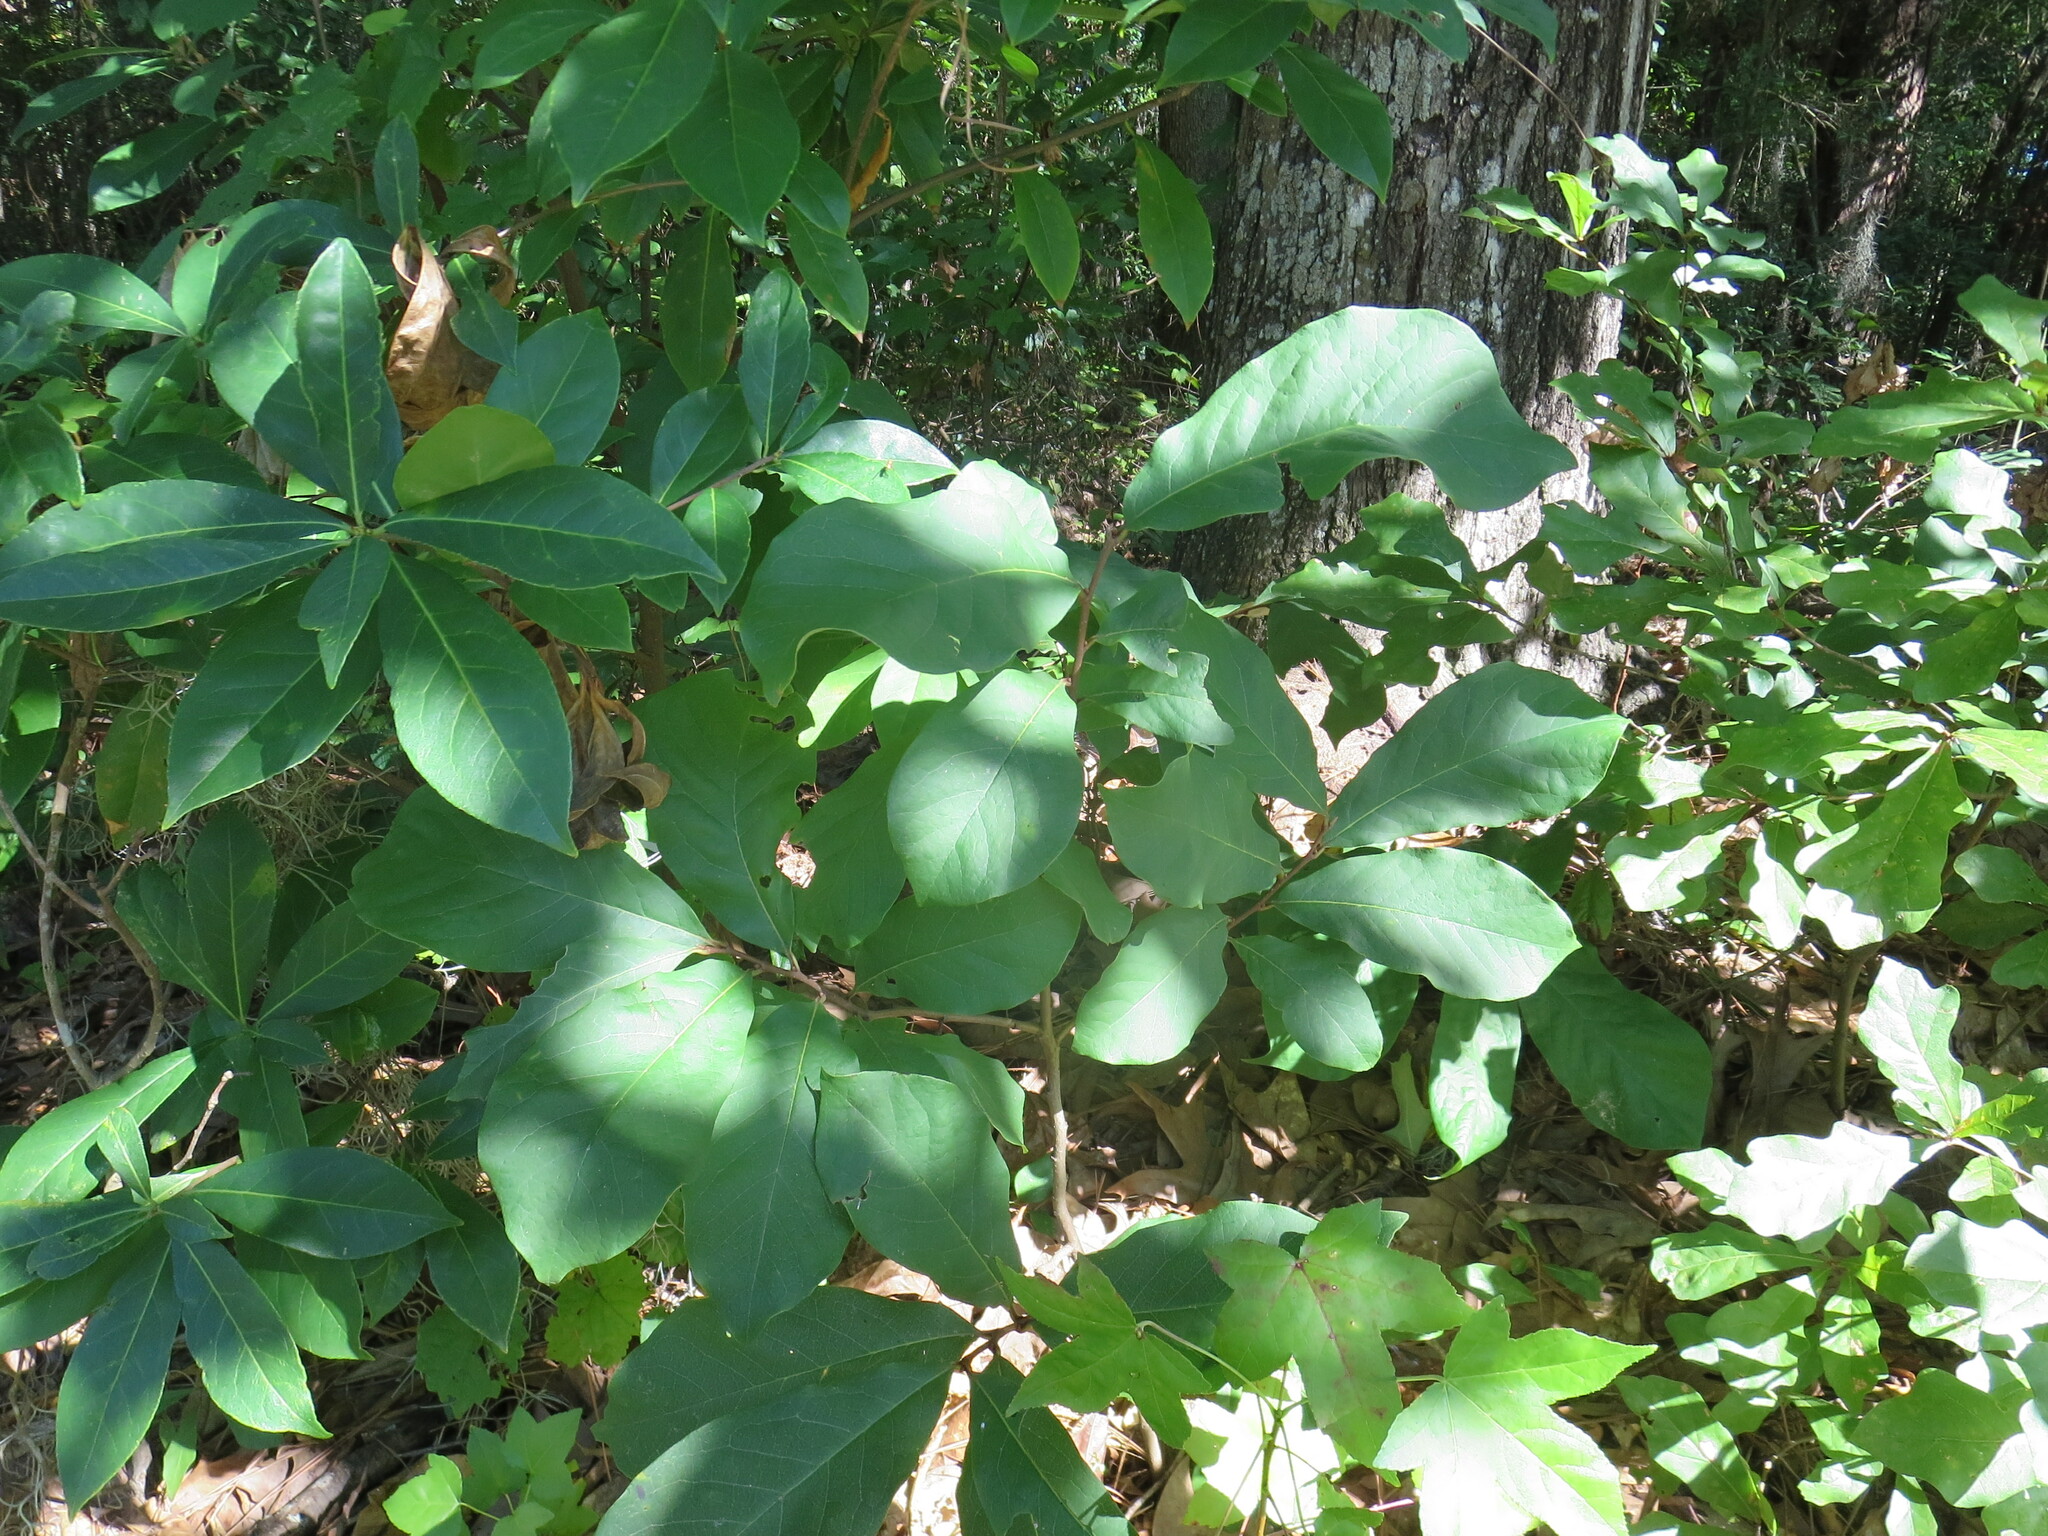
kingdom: Plantae
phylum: Tracheophyta
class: Magnoliopsida
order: Magnoliales
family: Annonaceae
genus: Asimina
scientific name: Asimina parviflora
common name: Dwarf pawpaw
